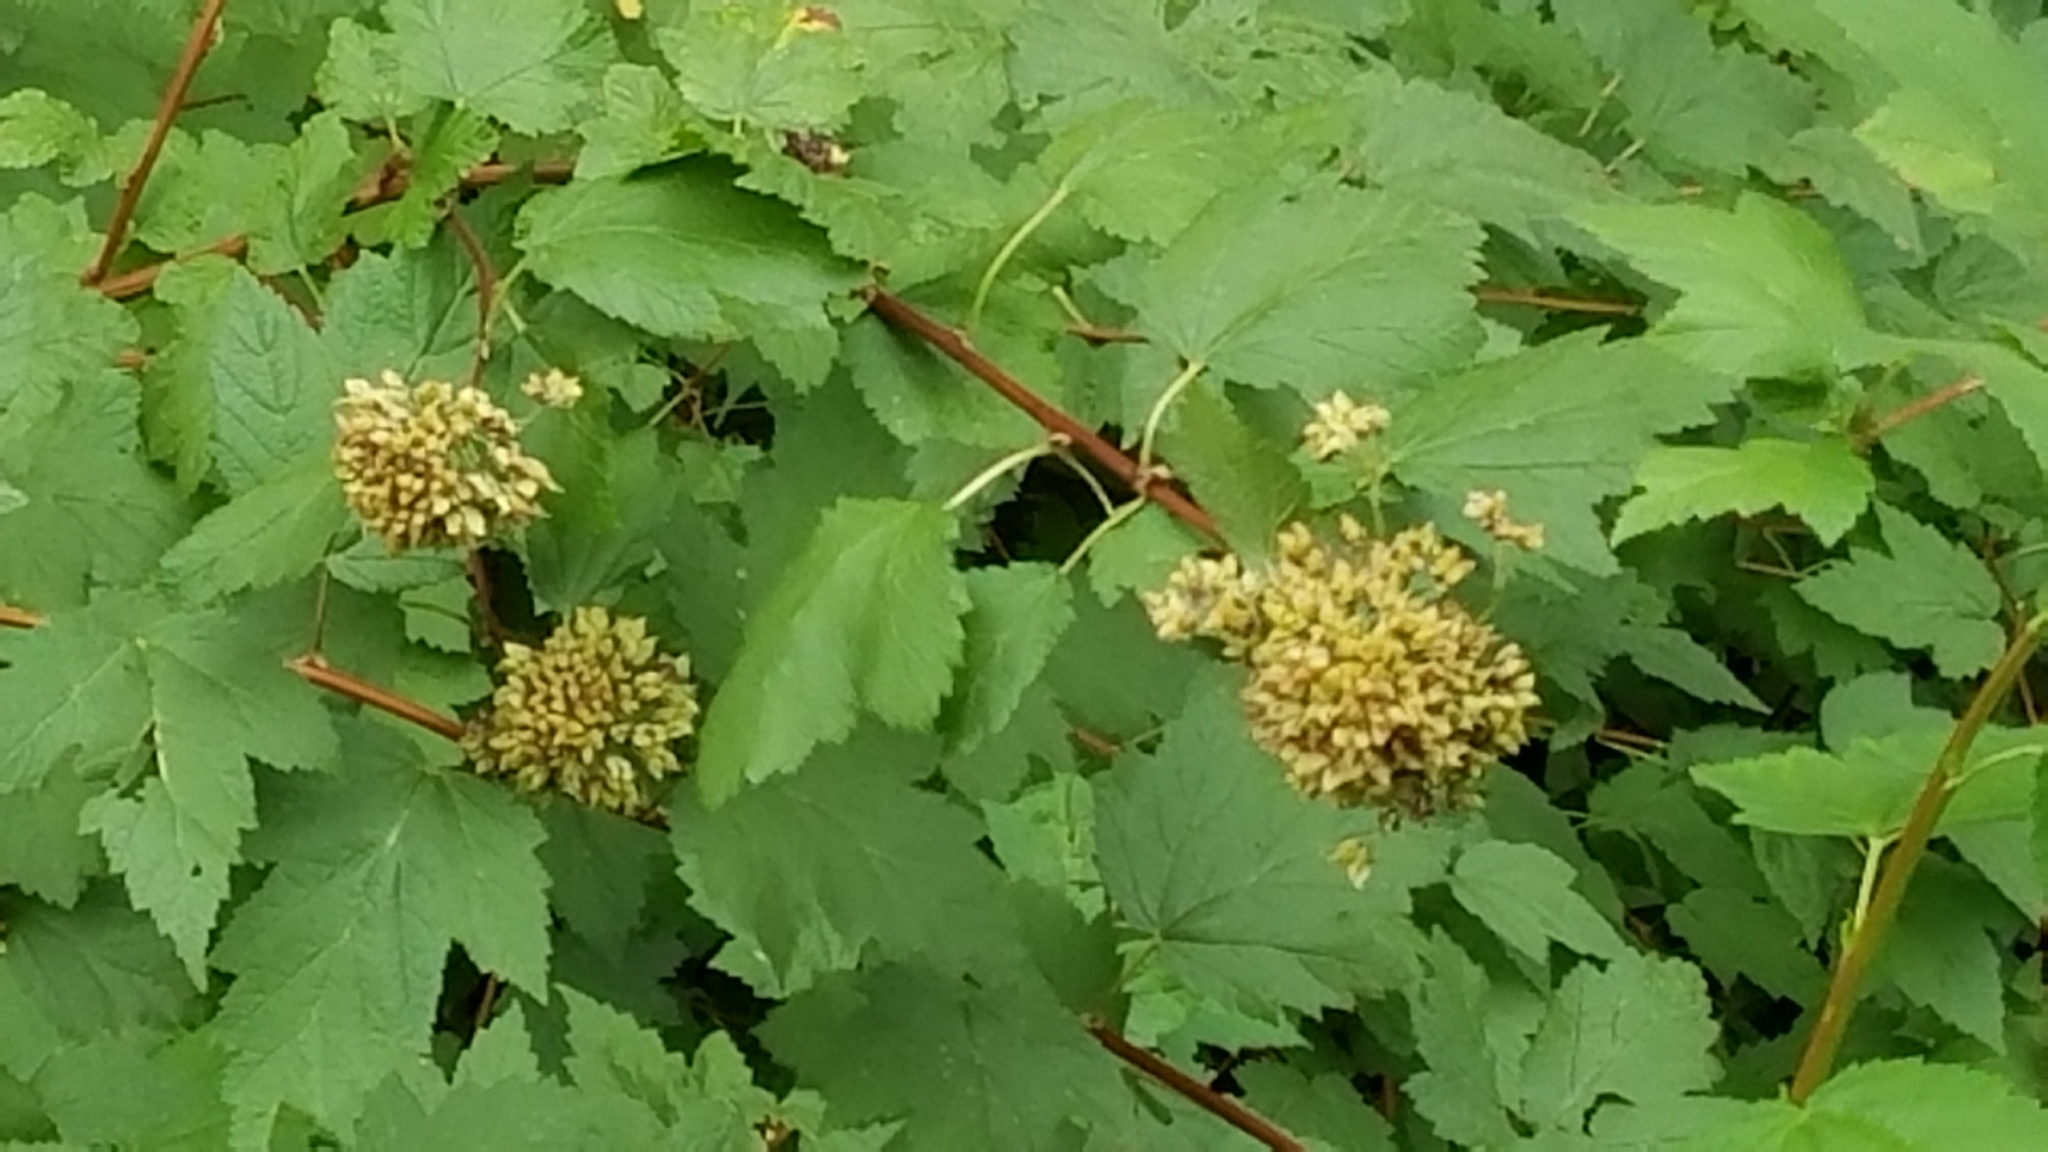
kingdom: Plantae
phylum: Tracheophyta
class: Magnoliopsida
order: Rosales
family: Rosaceae
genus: Physocarpus
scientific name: Physocarpus capitatus
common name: Pacific ninebark
